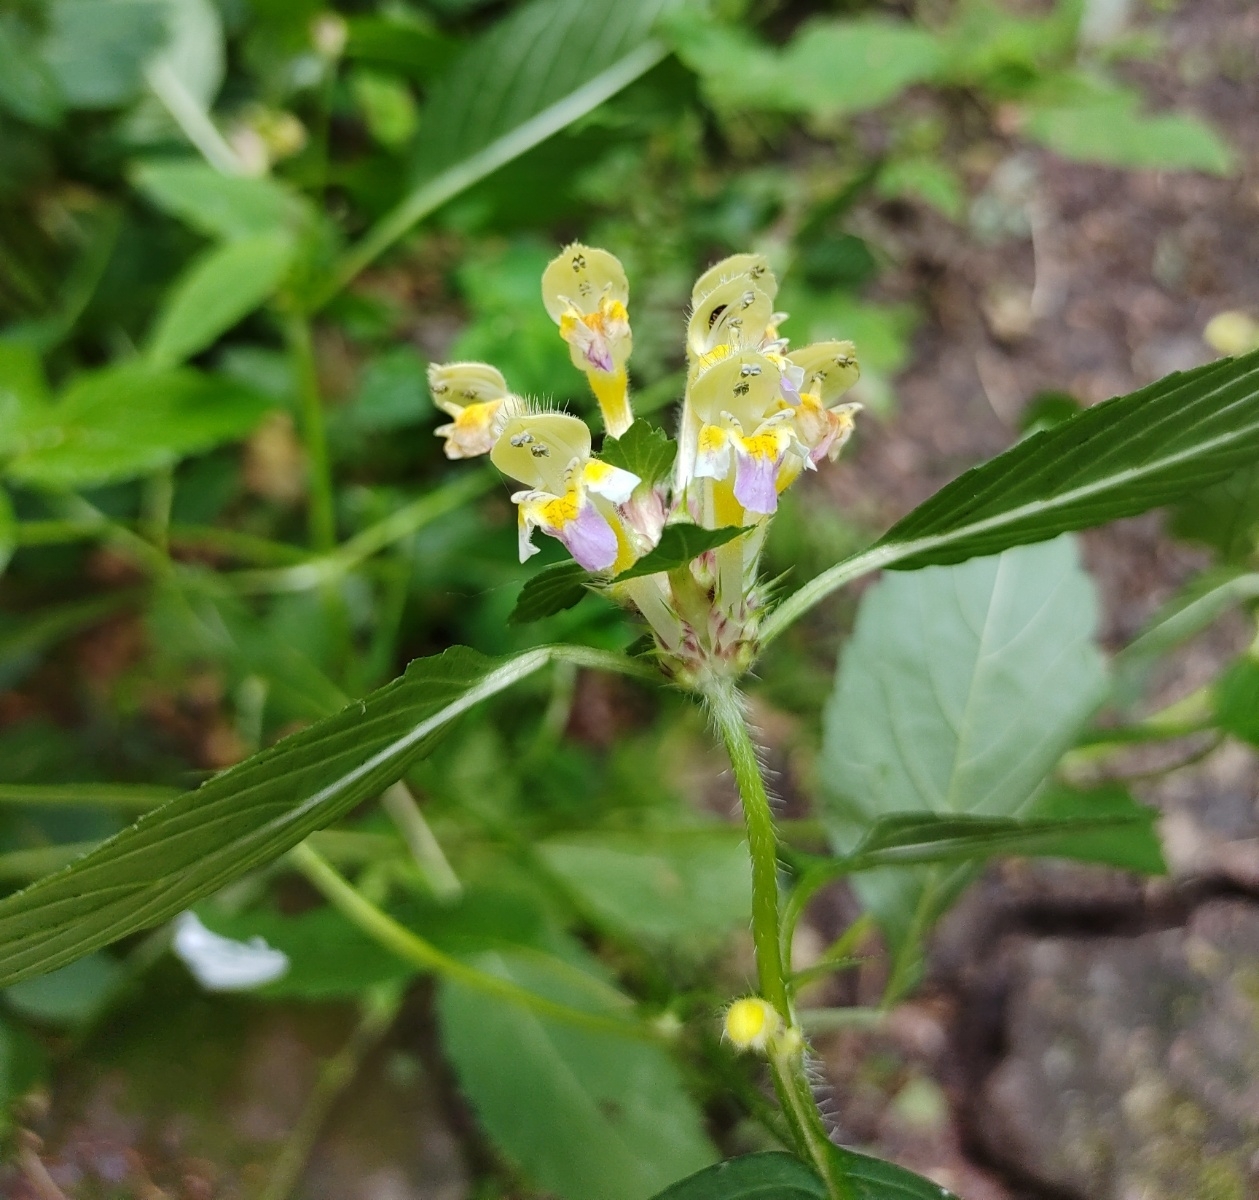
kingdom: Plantae
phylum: Tracheophyta
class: Magnoliopsida
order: Lamiales
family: Lamiaceae
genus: Galeopsis
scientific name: Galeopsis speciosa
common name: Large-flowered hemp-nettle
